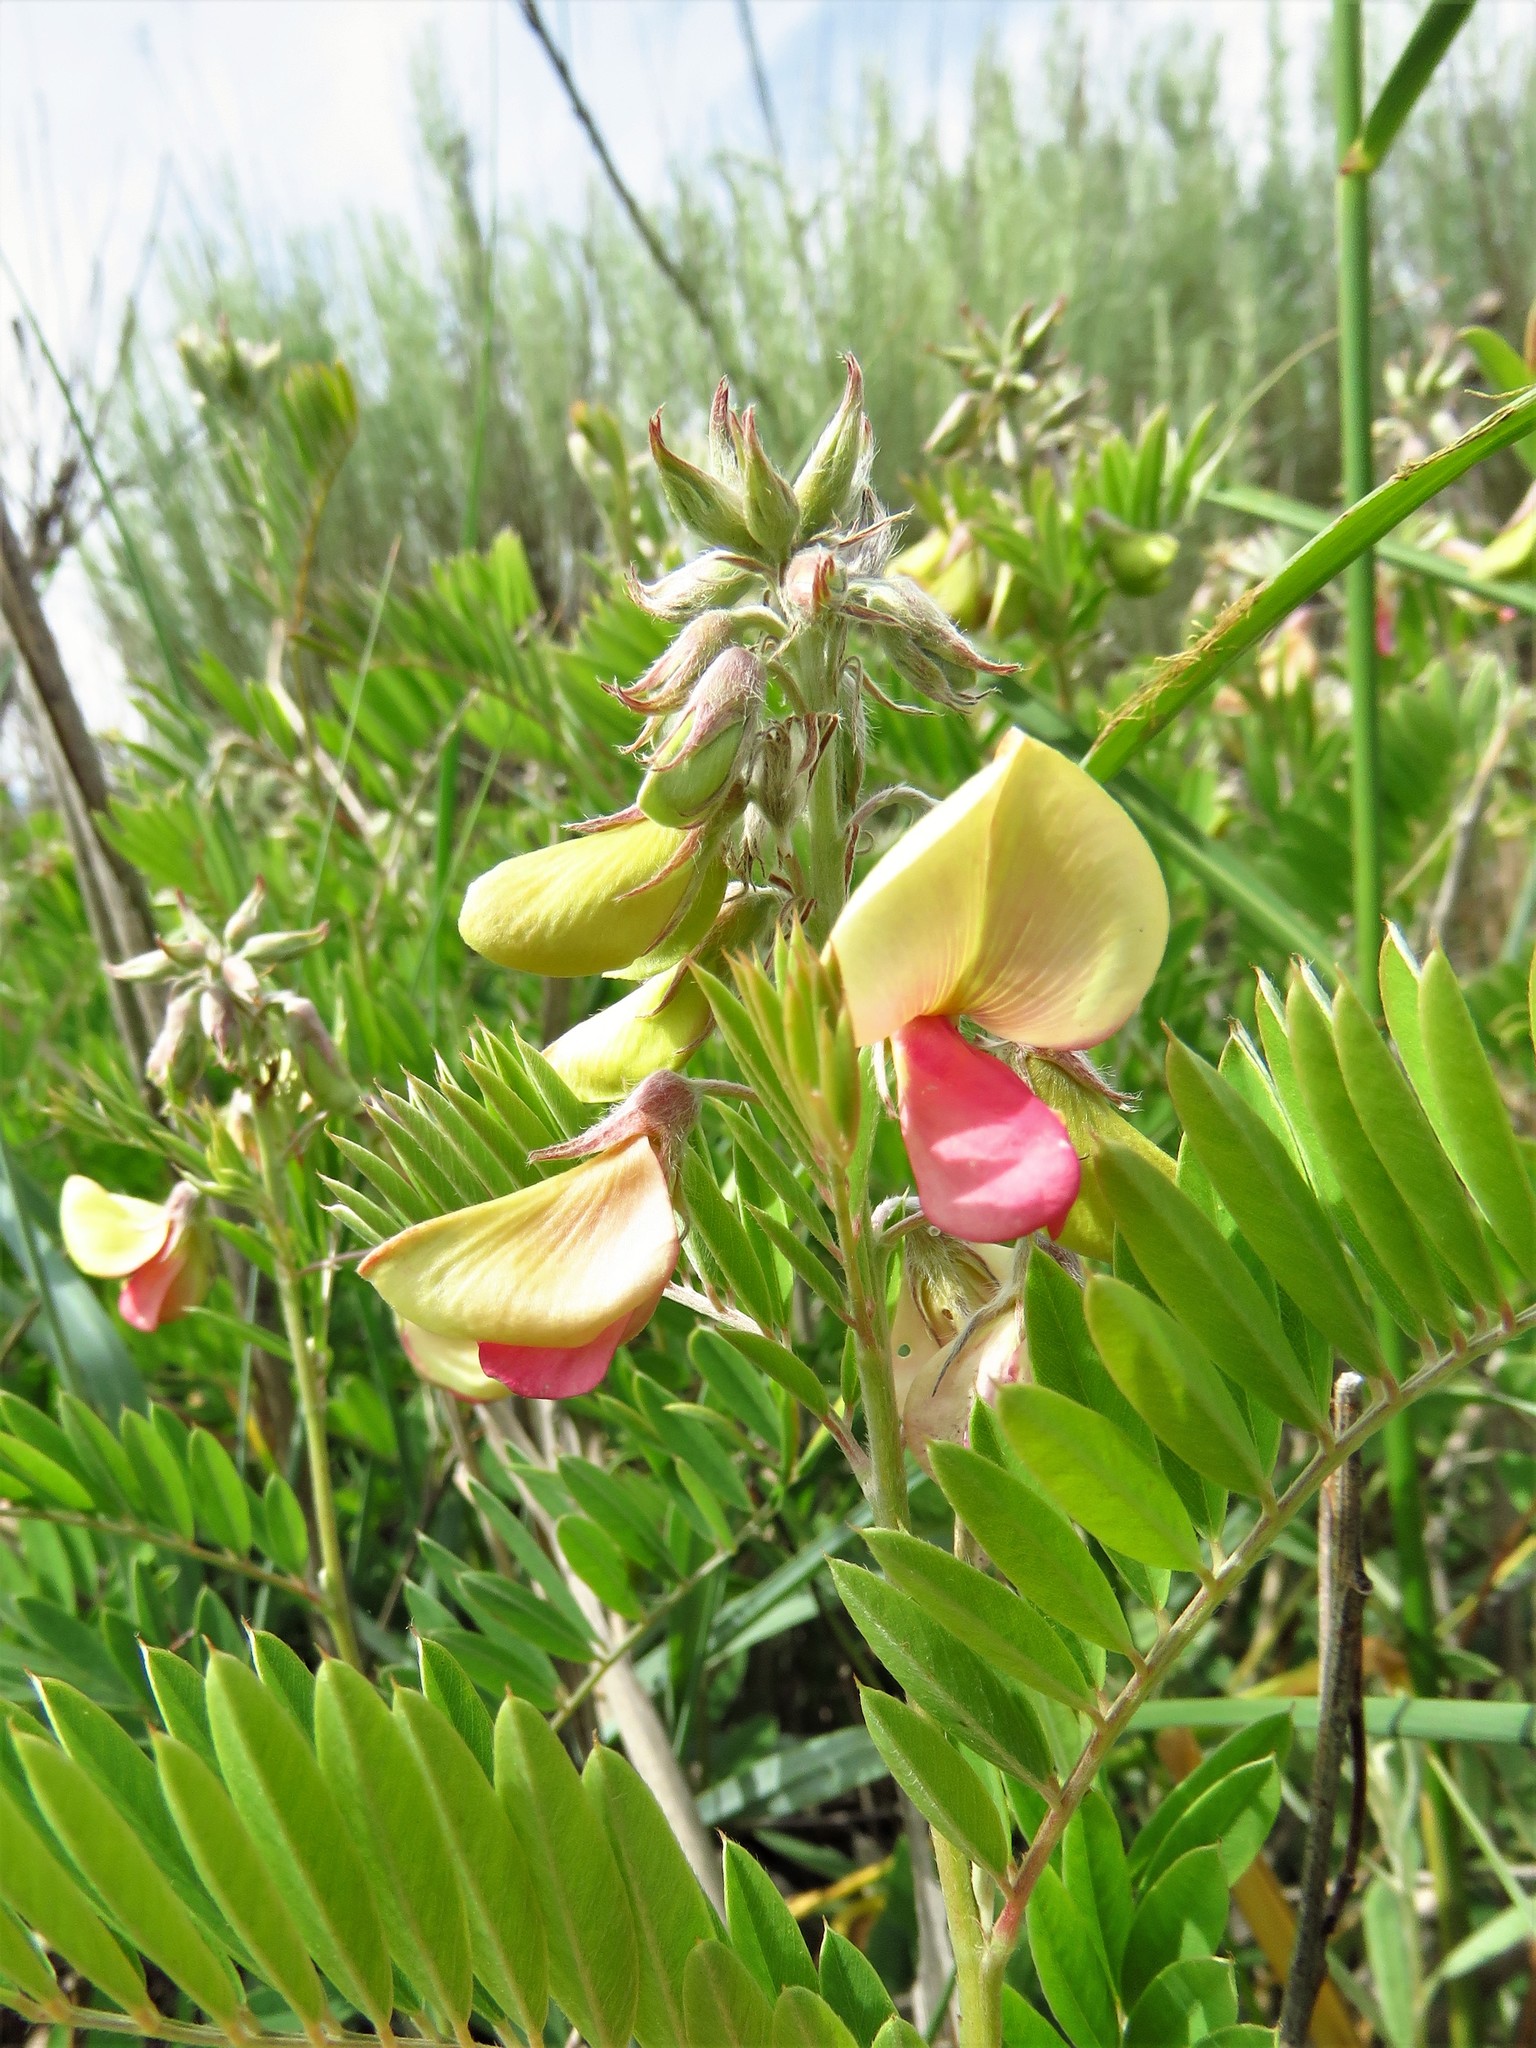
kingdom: Plantae
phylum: Tracheophyta
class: Magnoliopsida
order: Fabales
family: Fabaceae
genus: Tephrosia
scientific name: Tephrosia virginiana
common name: Rabbit-pea
